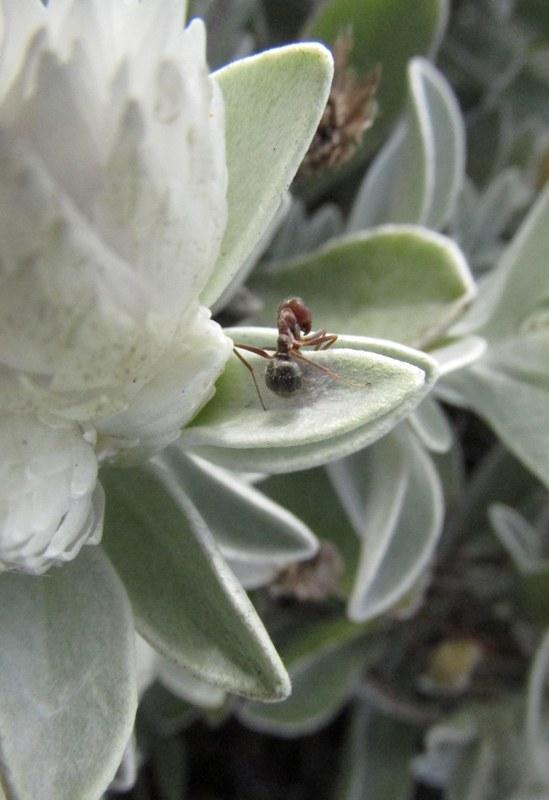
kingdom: Animalia
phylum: Arthropoda
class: Insecta
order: Hymenoptera
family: Formicidae
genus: Anoplolepis
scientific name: Anoplolepis rufescens
